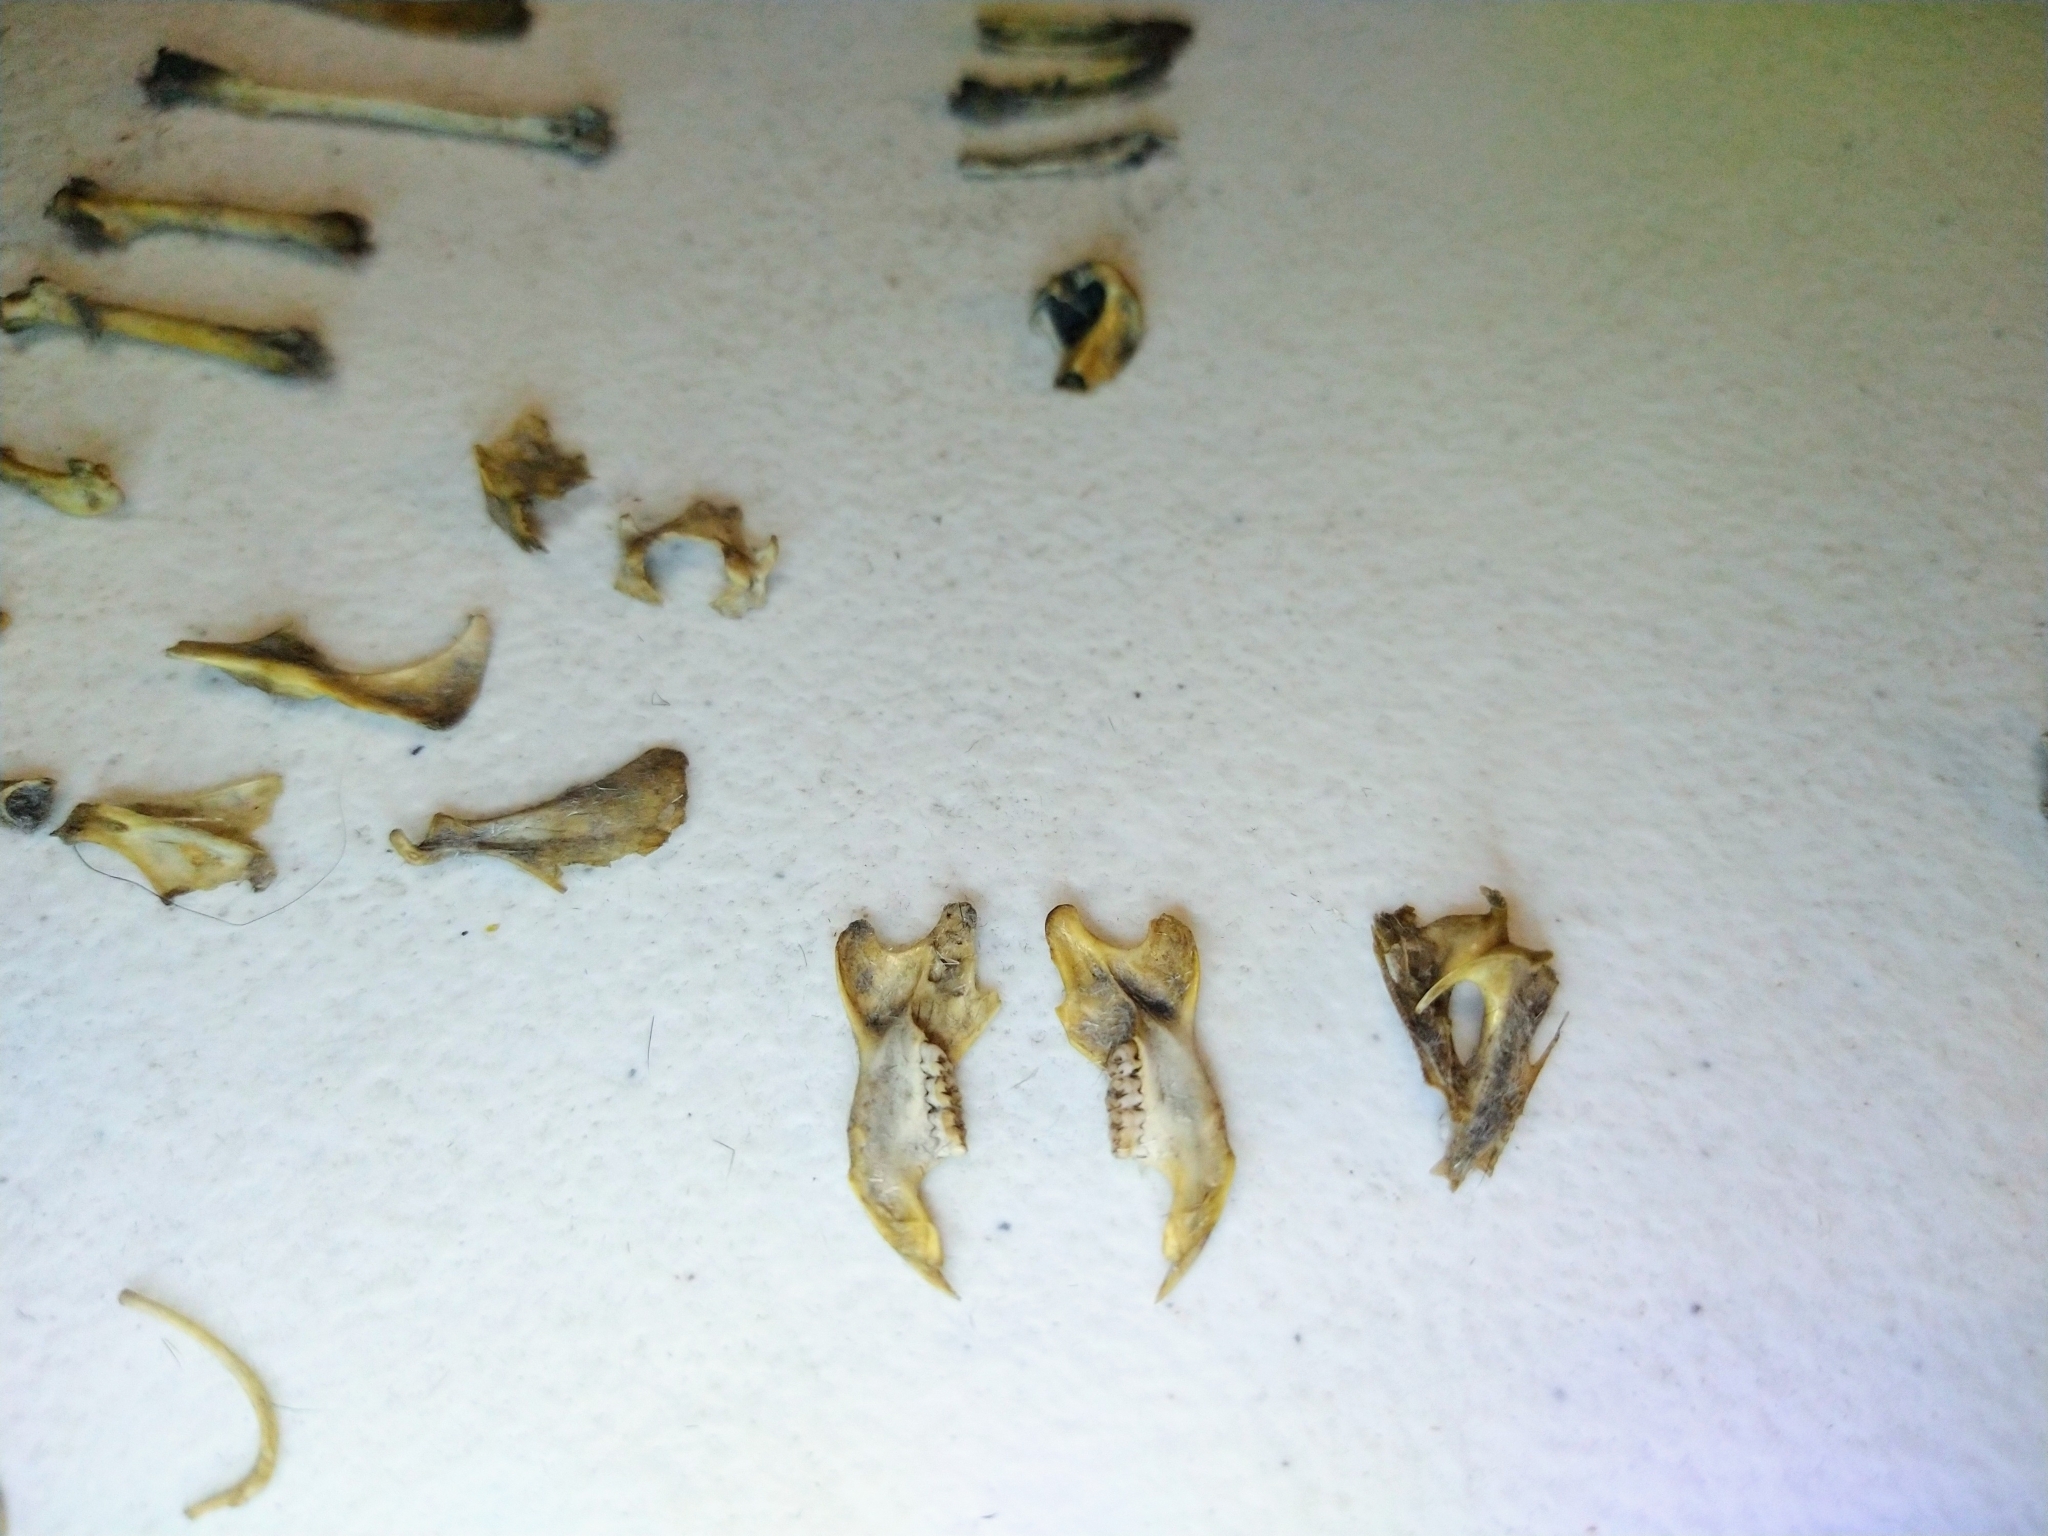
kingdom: Animalia
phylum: Chordata
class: Aves
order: Passeriformes
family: Mimidae
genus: Mimus
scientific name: Mimus polyglottos
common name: Northern mockingbird
